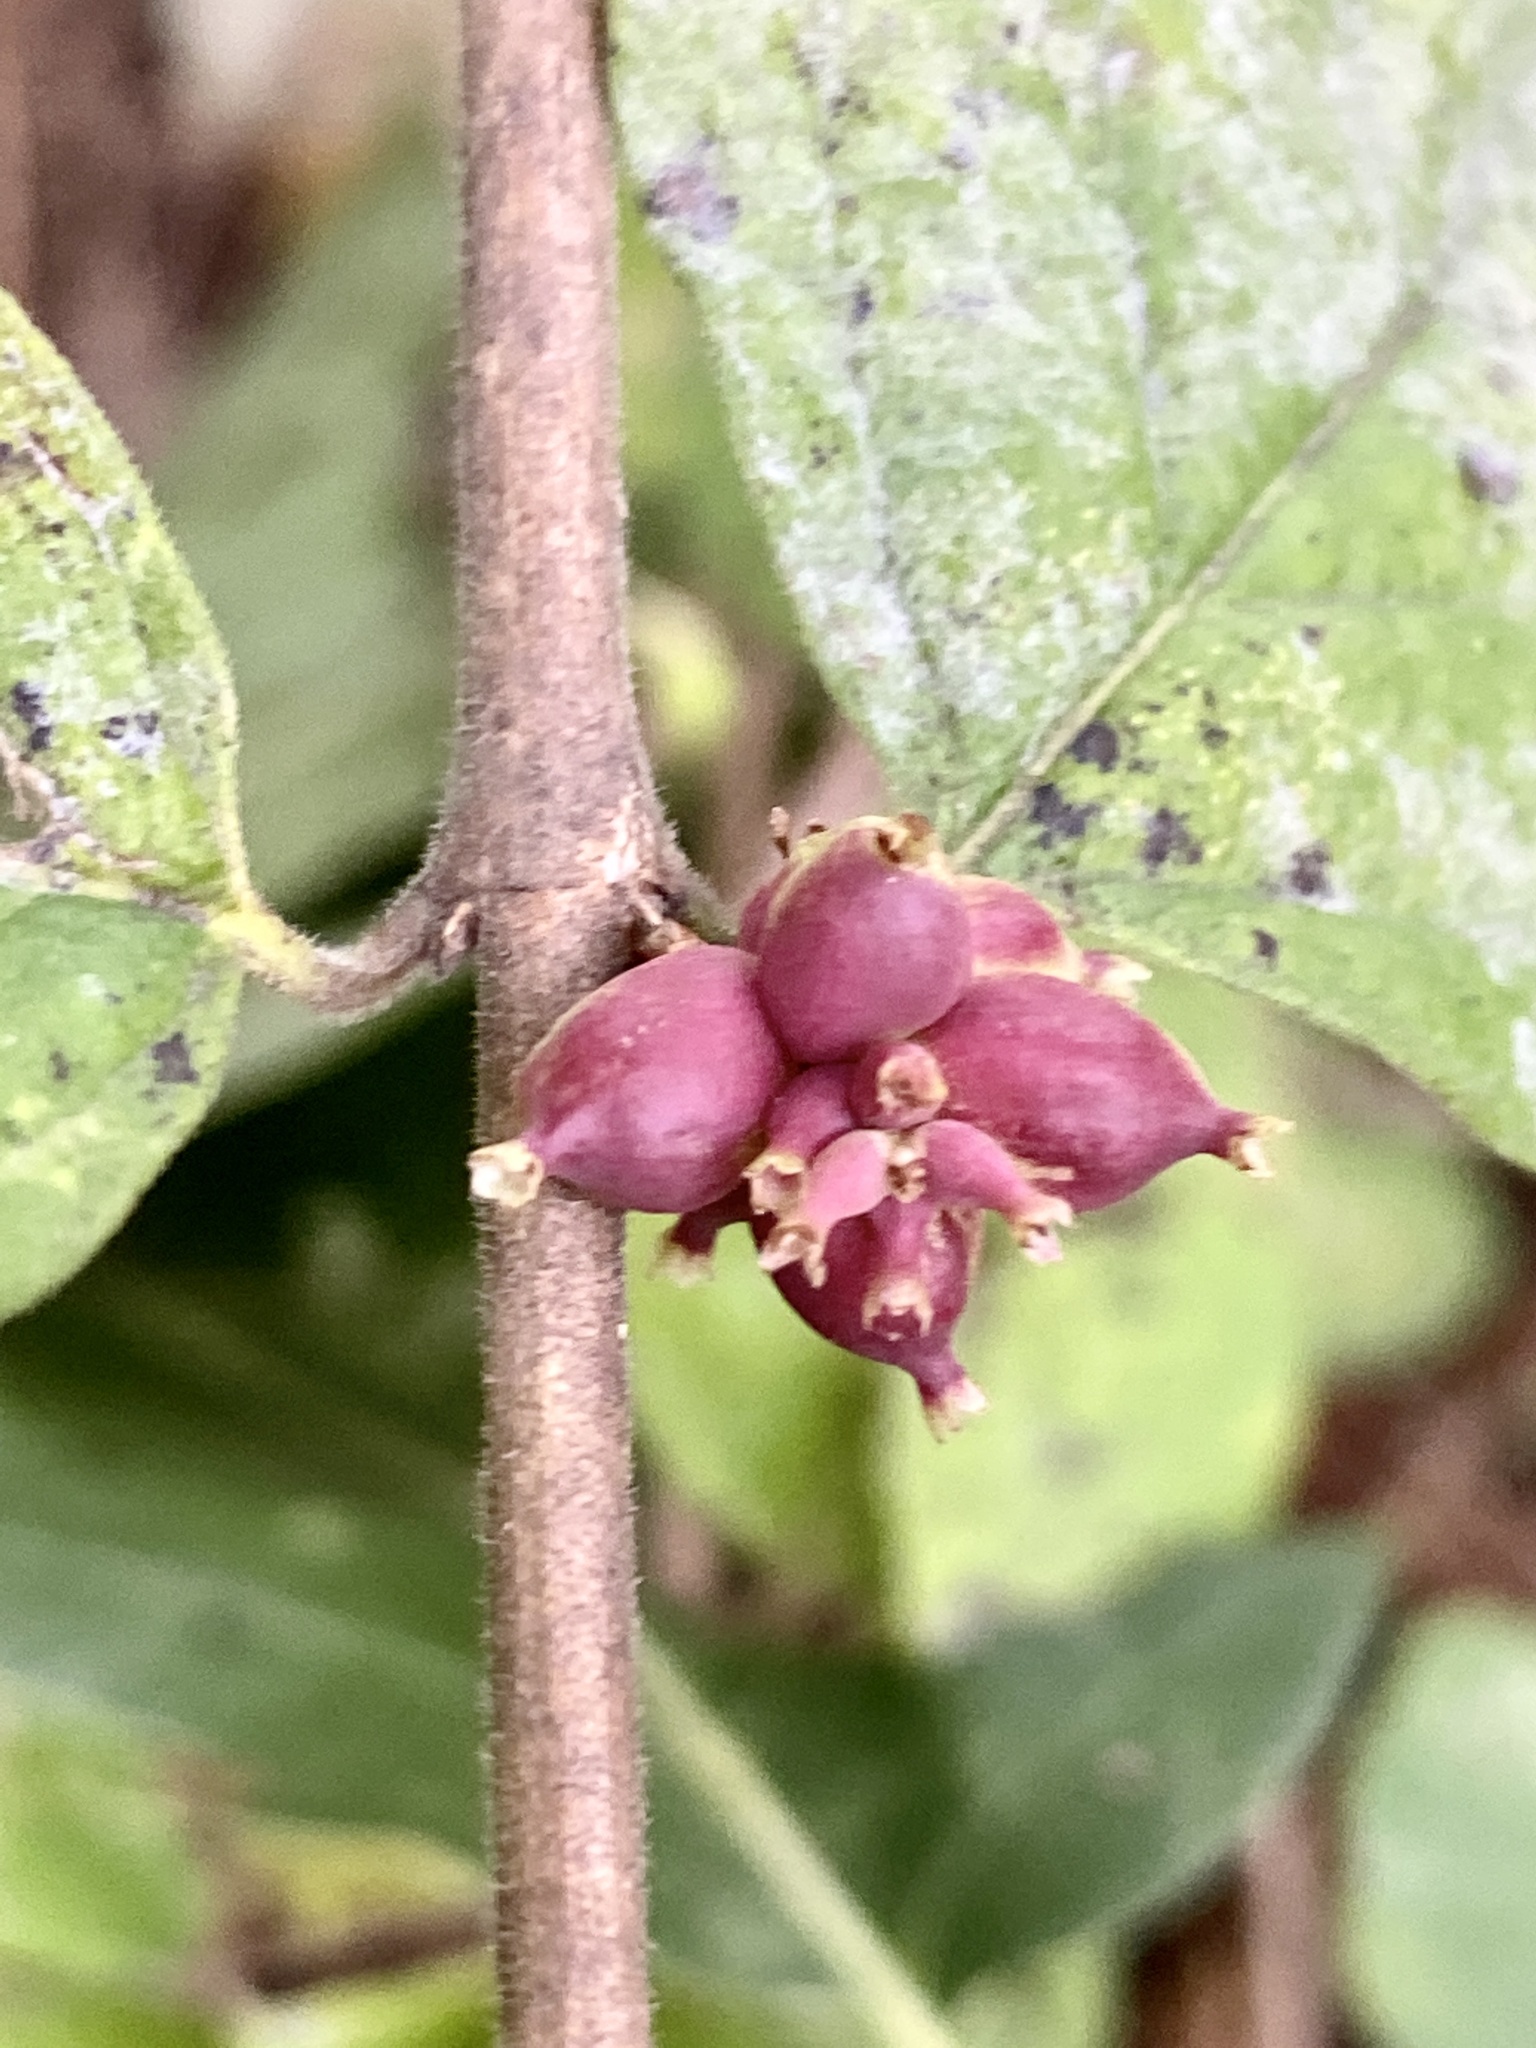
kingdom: Plantae
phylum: Tracheophyta
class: Magnoliopsida
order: Dipsacales
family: Caprifoliaceae
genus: Symphoricarpos
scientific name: Symphoricarpos orbiculatus
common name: Coralberry
